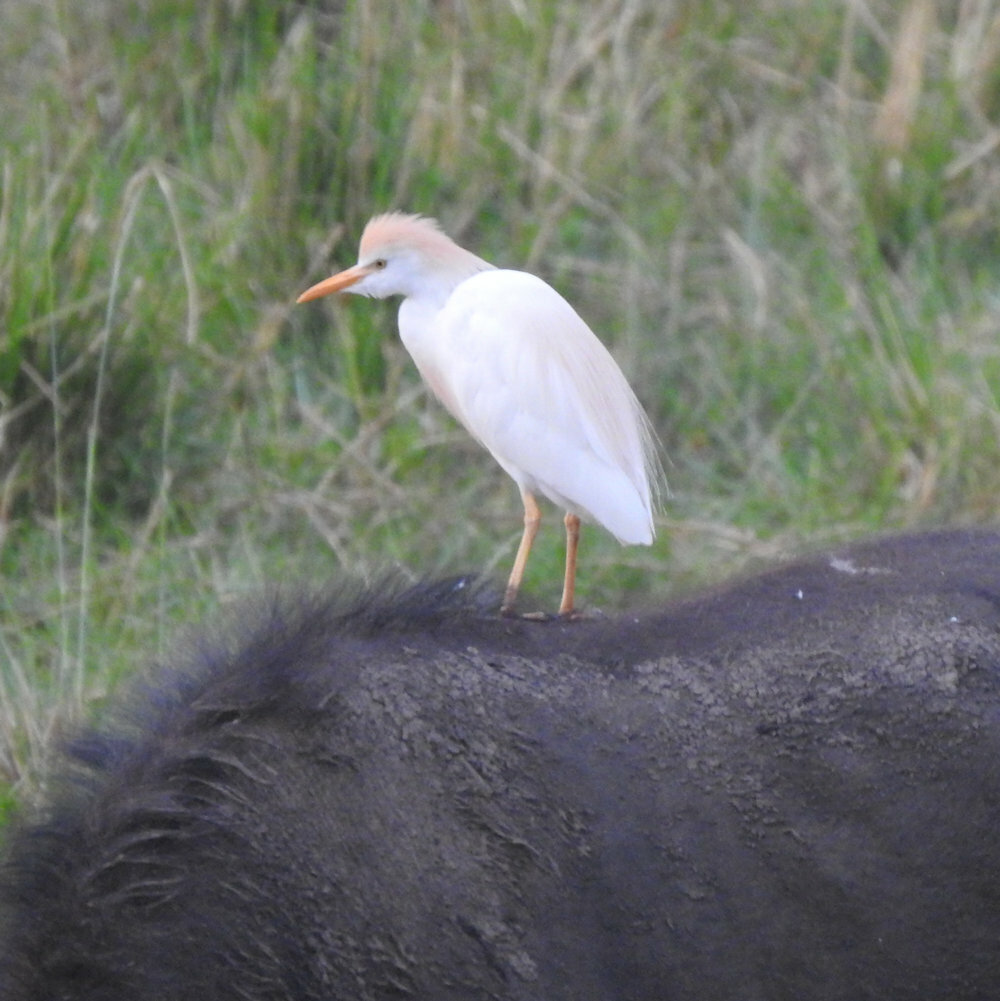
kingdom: Animalia
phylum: Chordata
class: Aves
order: Pelecaniformes
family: Ardeidae
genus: Bubulcus
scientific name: Bubulcus ibis
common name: Cattle egret
